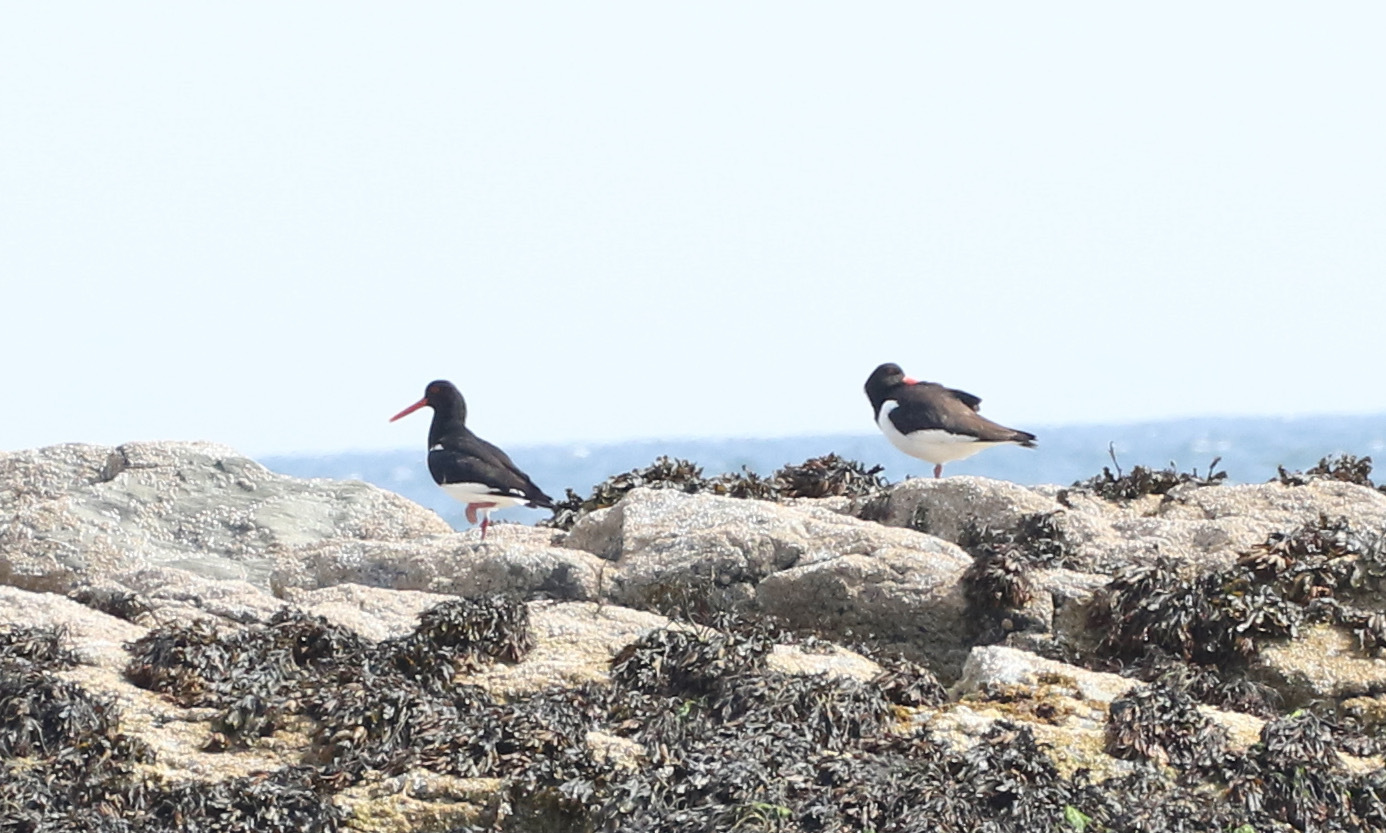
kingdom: Animalia
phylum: Chordata
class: Aves
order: Charadriiformes
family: Haematopodidae
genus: Haematopus
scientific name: Haematopus ostralegus
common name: Eurasian oystercatcher
